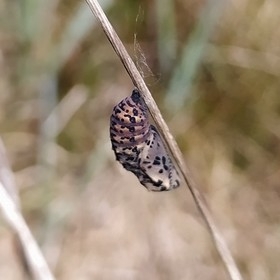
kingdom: Animalia
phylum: Arthropoda
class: Insecta
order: Lepidoptera
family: Nymphalidae
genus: Euphydryas
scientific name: Euphydryas maturna
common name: Scarce fritillary
